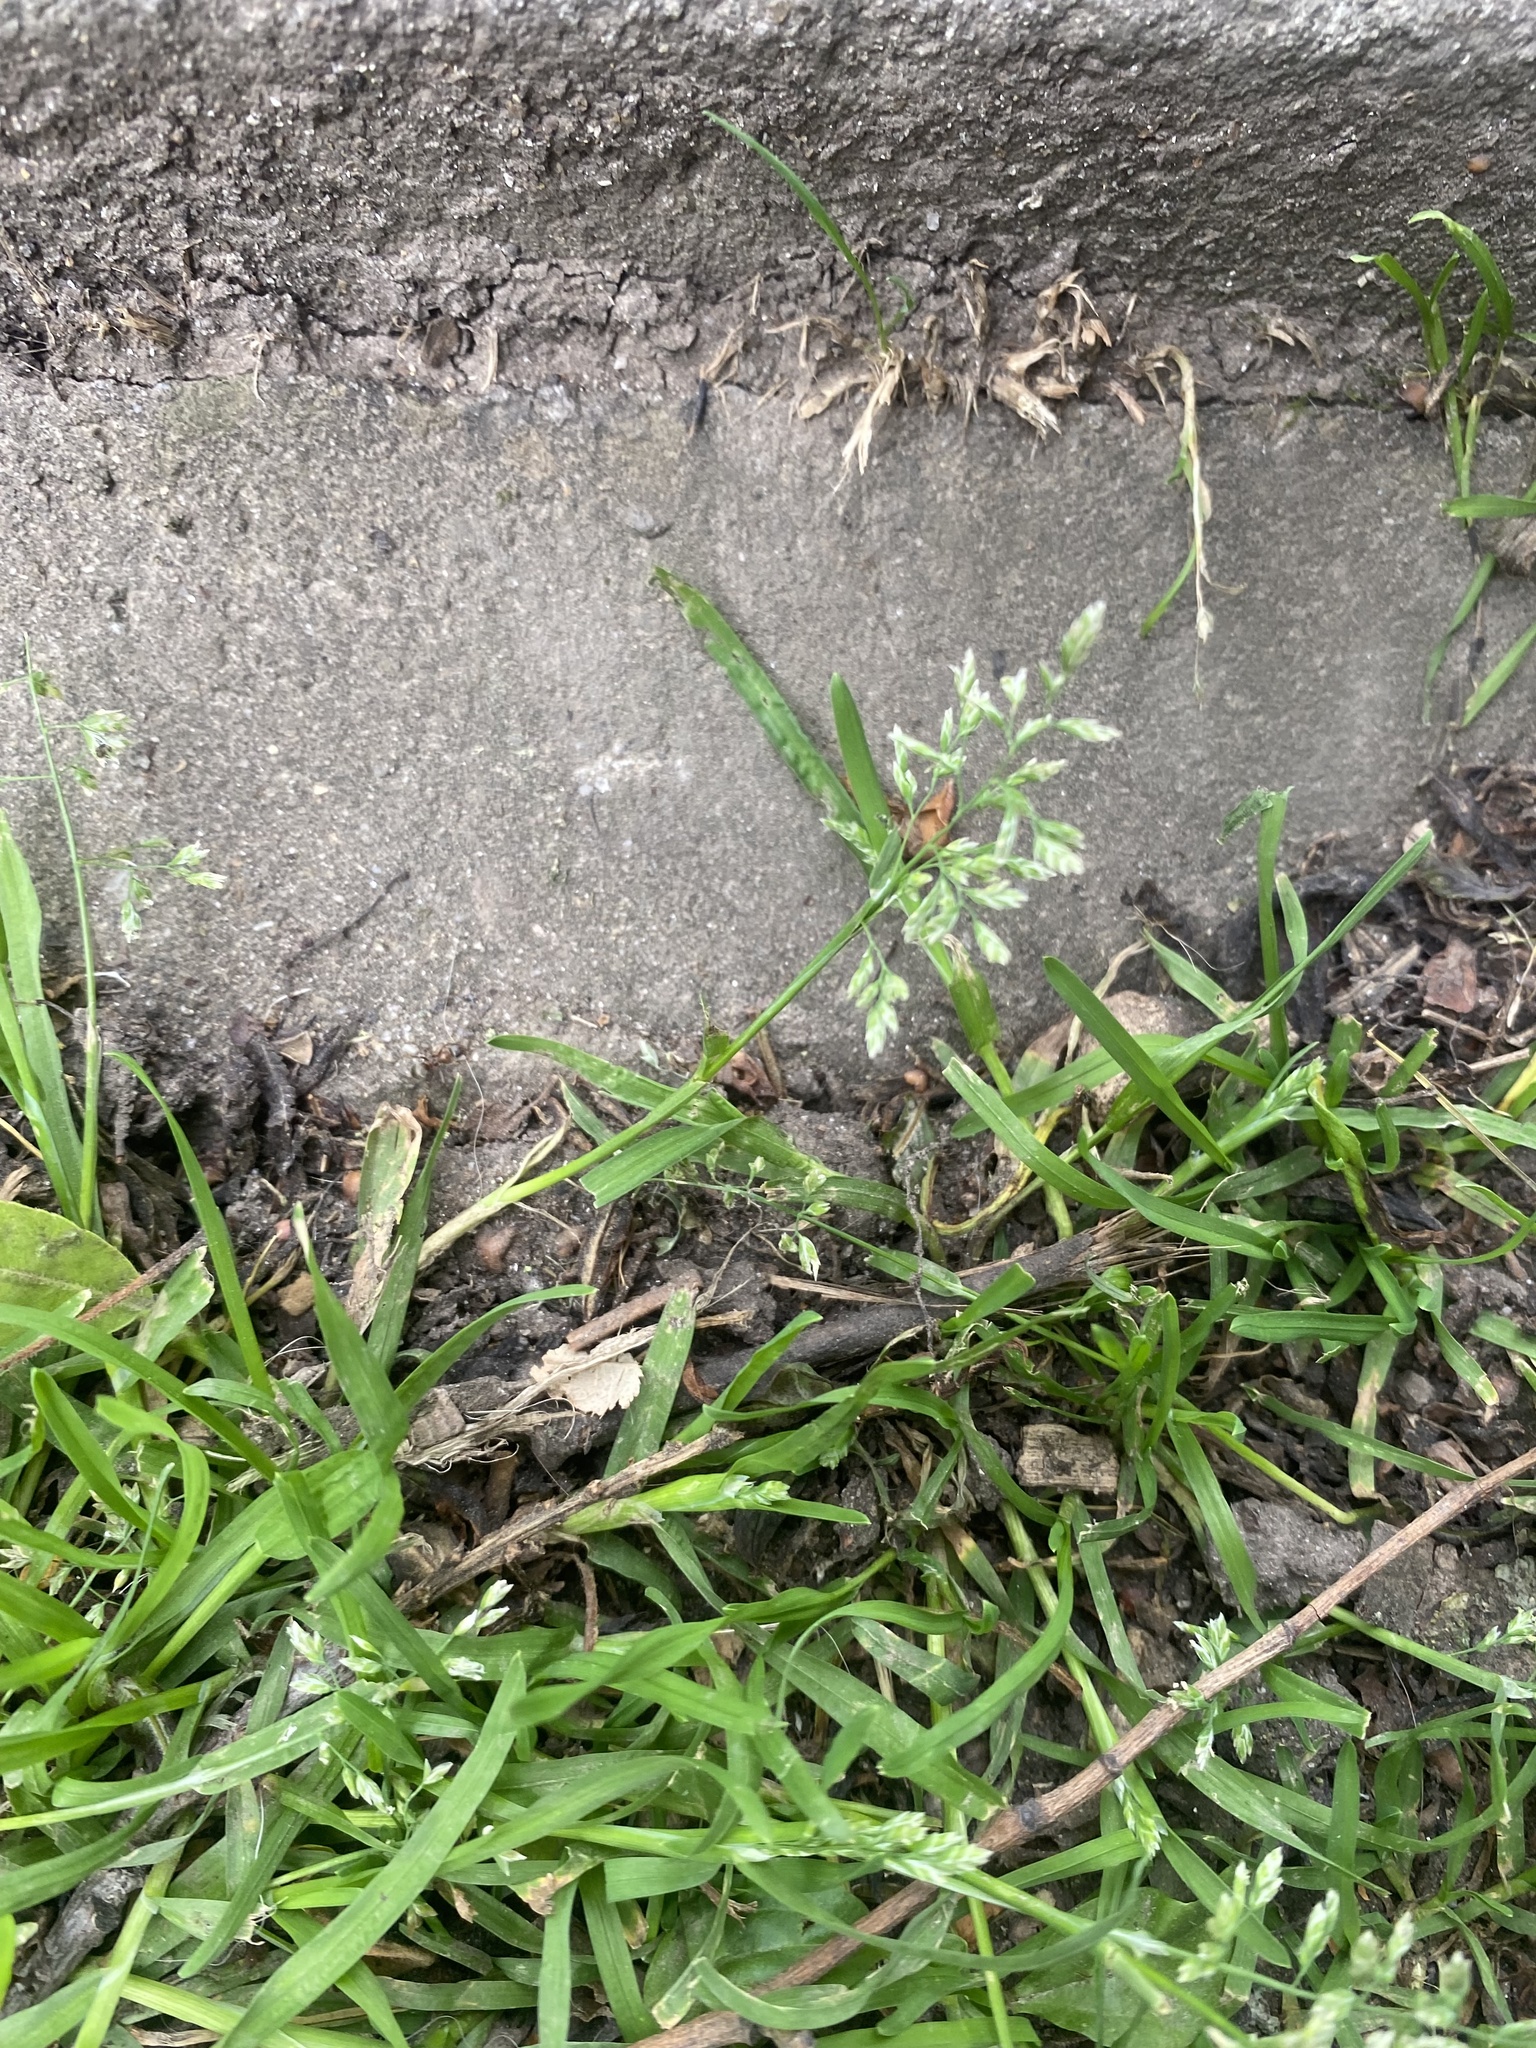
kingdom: Plantae
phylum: Tracheophyta
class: Liliopsida
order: Poales
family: Poaceae
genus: Poa
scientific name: Poa annua
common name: Annual bluegrass
